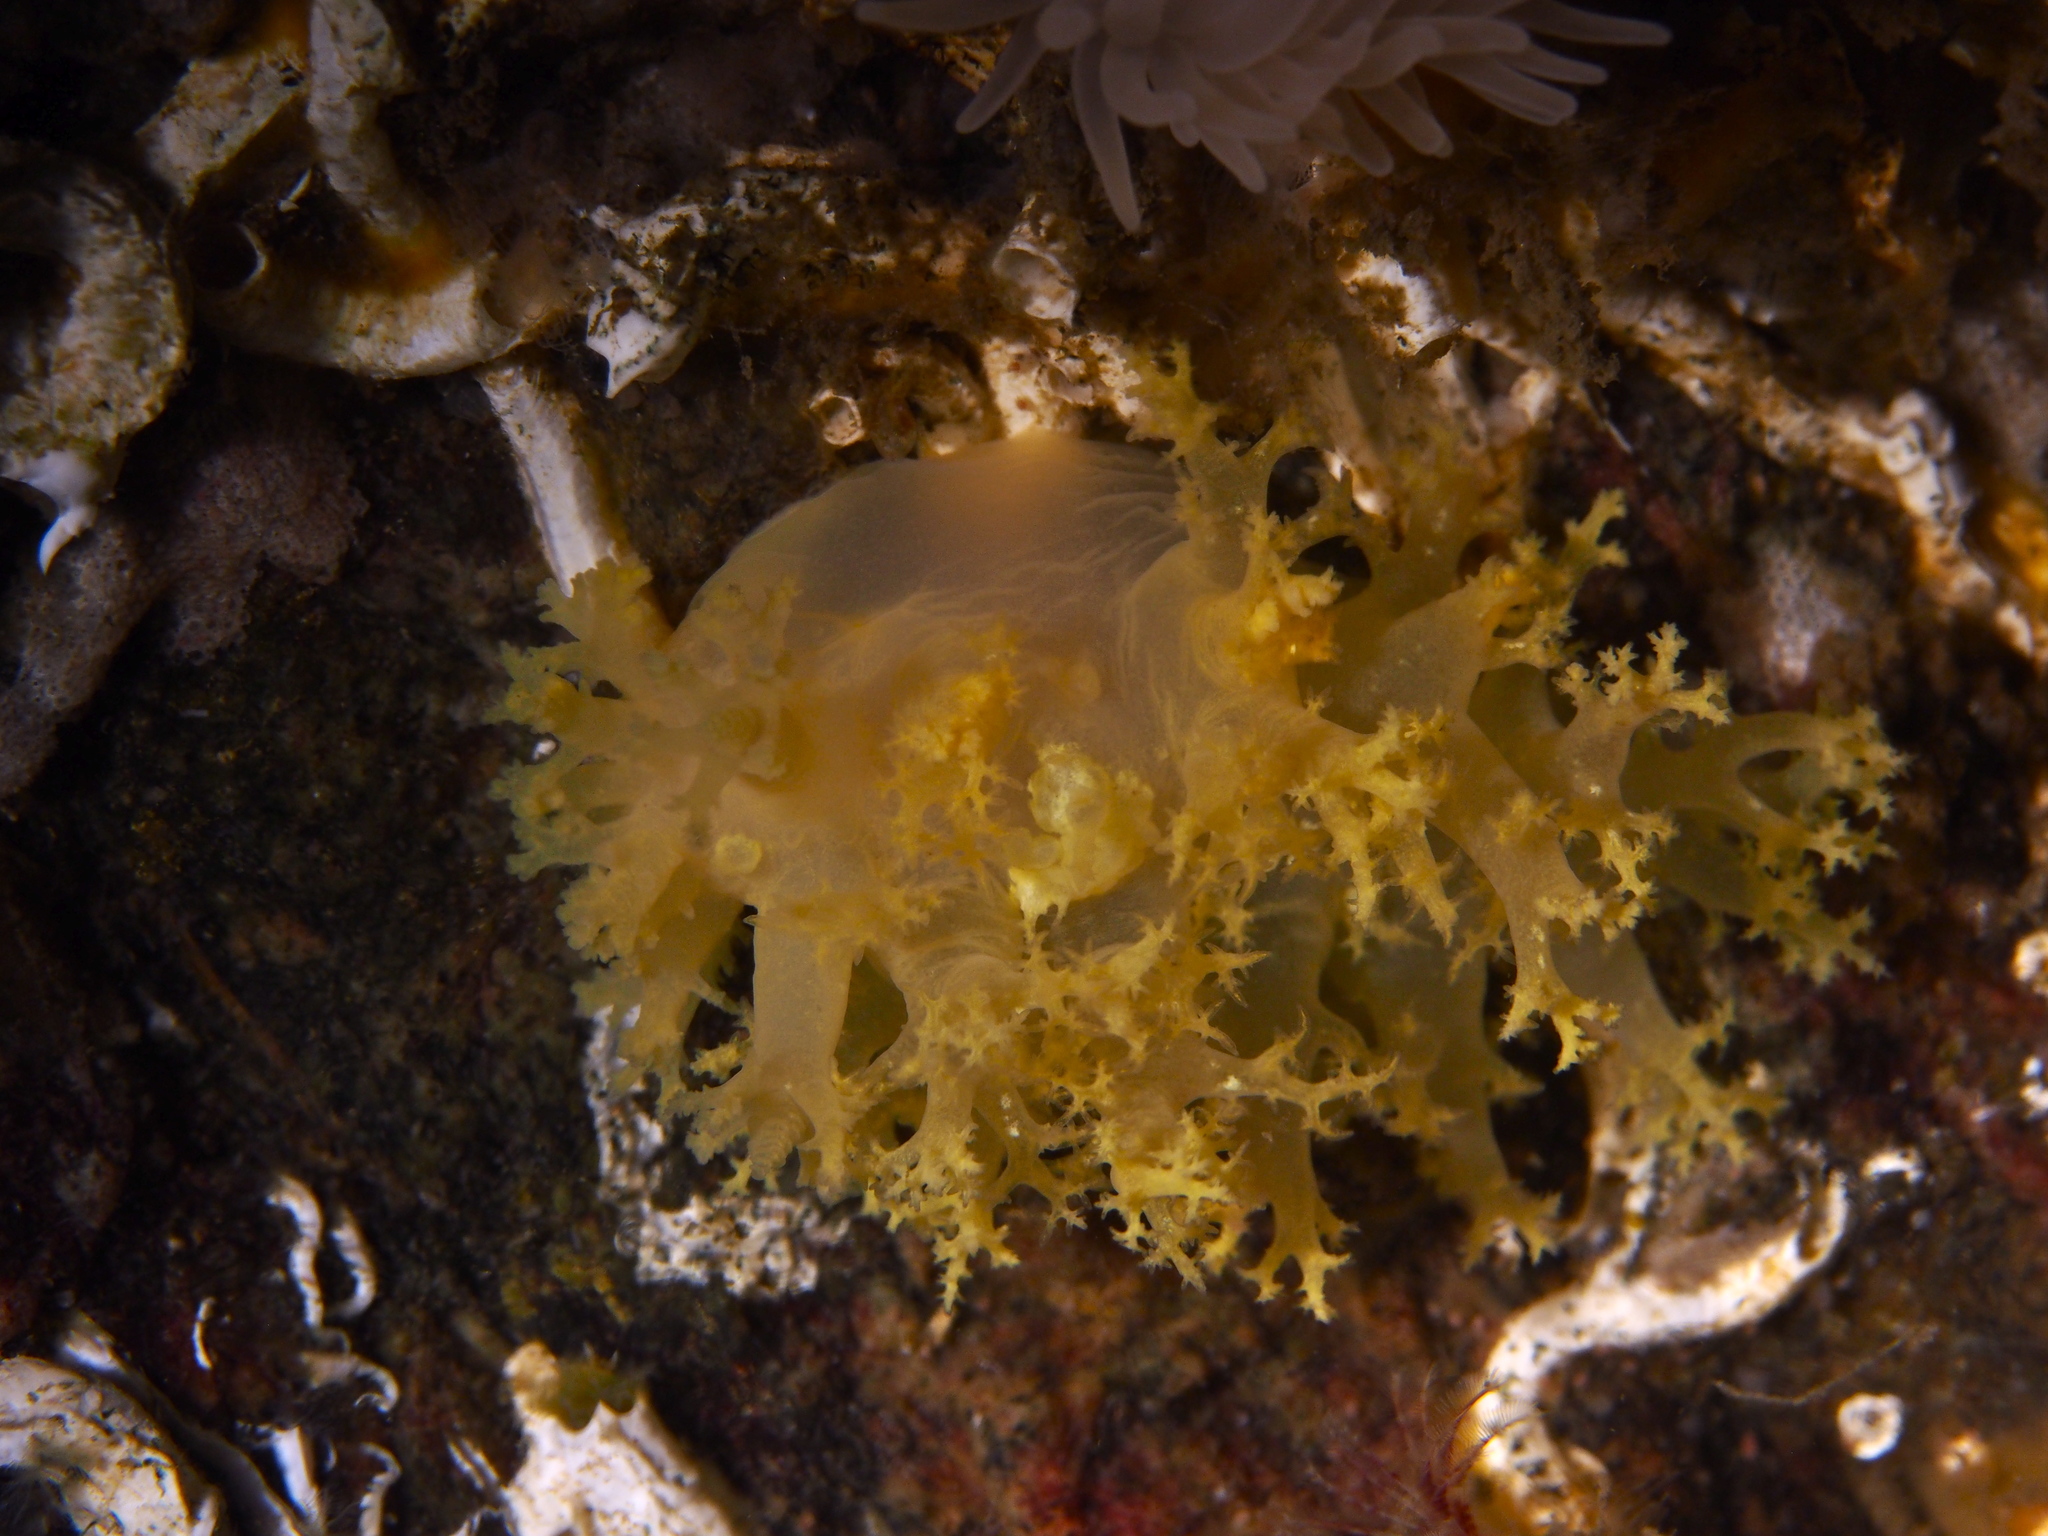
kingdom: Animalia
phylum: Mollusca
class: Gastropoda
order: Nudibranchia
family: Dendronotidae
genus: Dendronotus
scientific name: Dendronotus lacteus
